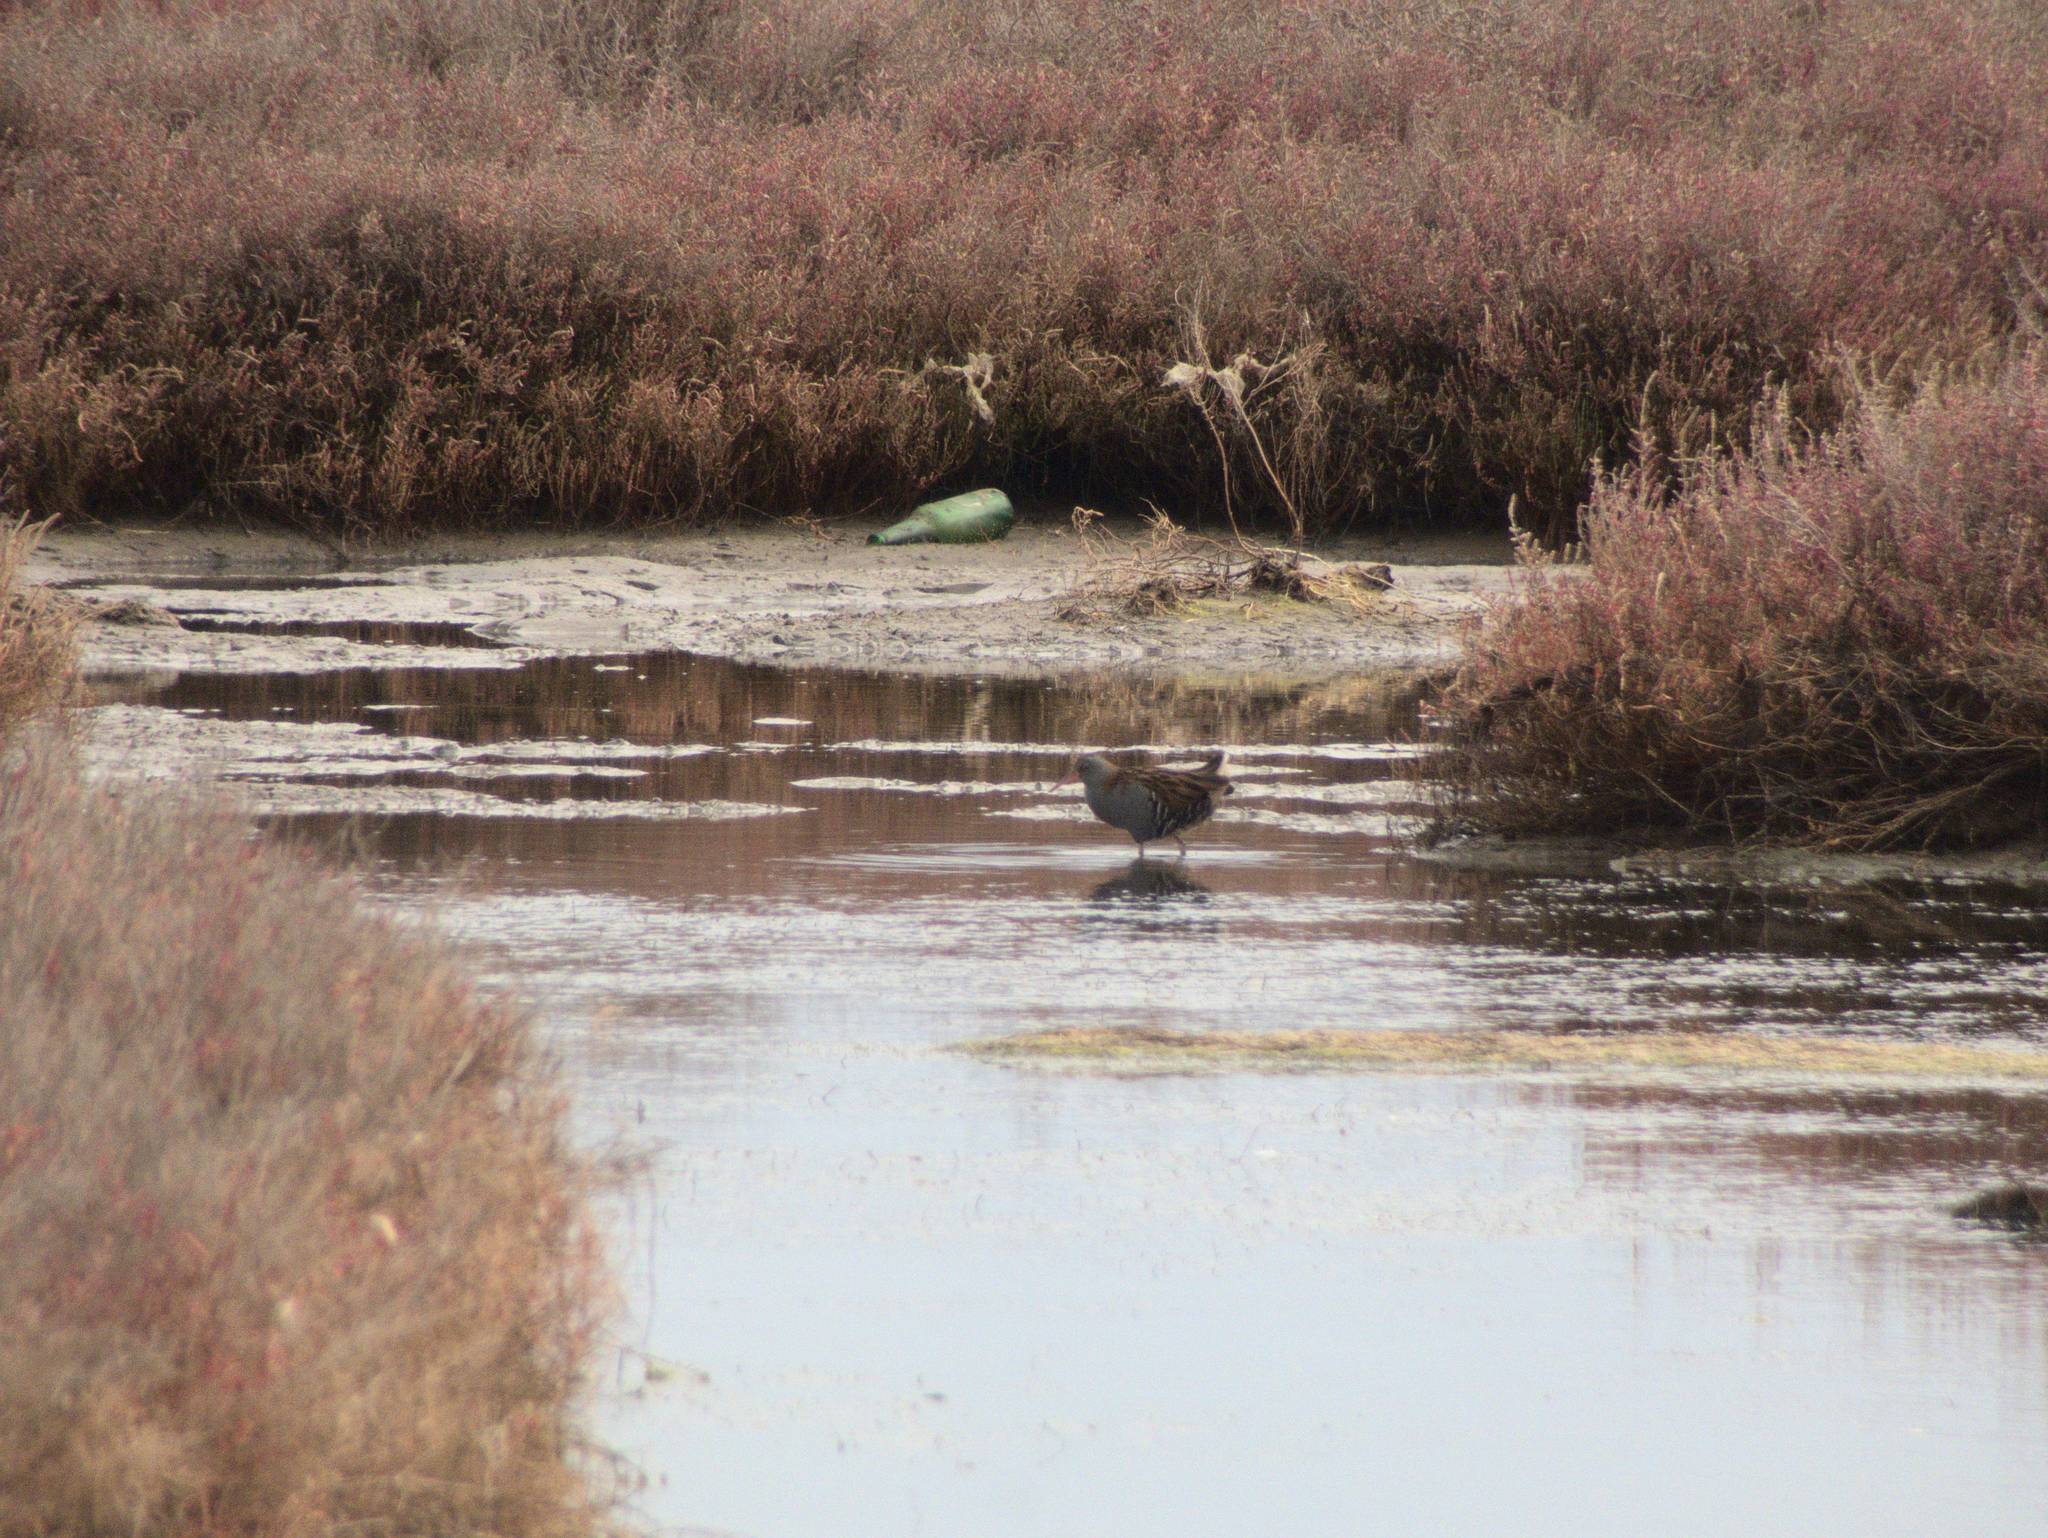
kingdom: Animalia
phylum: Chordata
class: Aves
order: Gruiformes
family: Rallidae
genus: Rallus
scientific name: Rallus aquaticus
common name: Water rail
